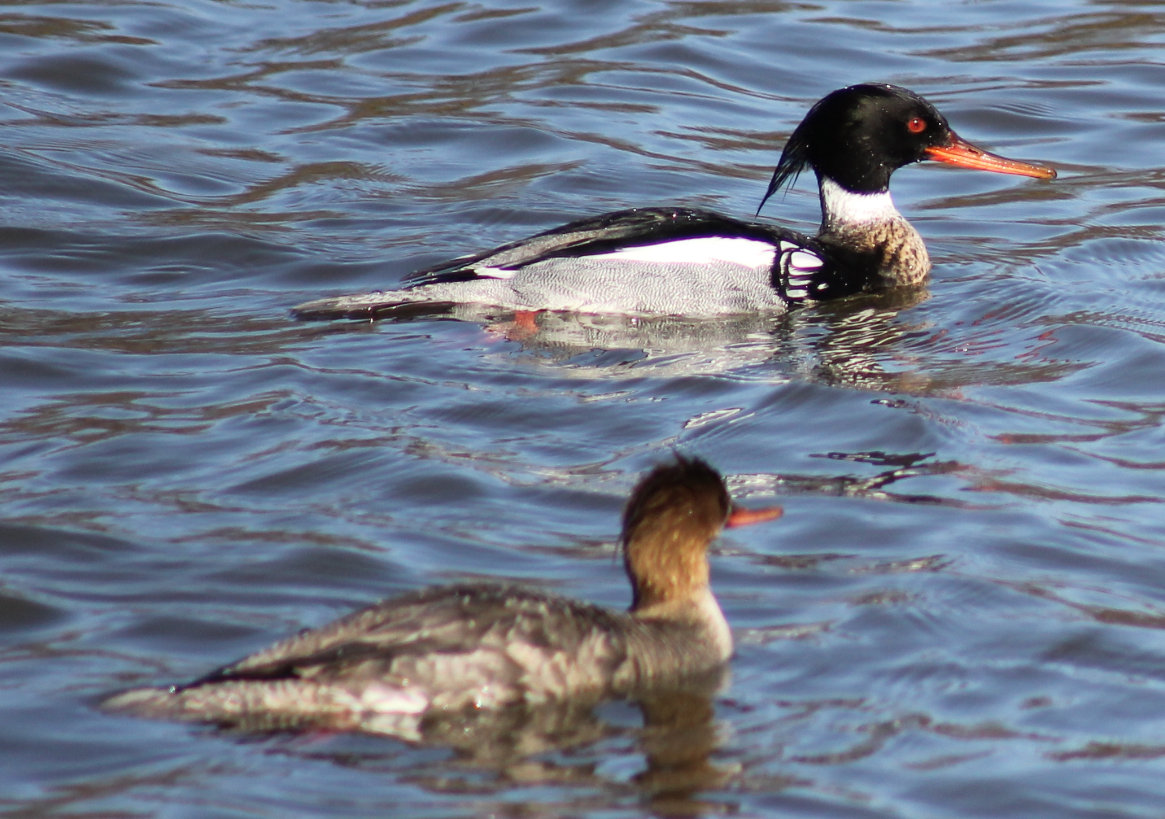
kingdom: Animalia
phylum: Chordata
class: Aves
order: Anseriformes
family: Anatidae
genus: Mergus
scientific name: Mergus serrator
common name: Red-breasted merganser
